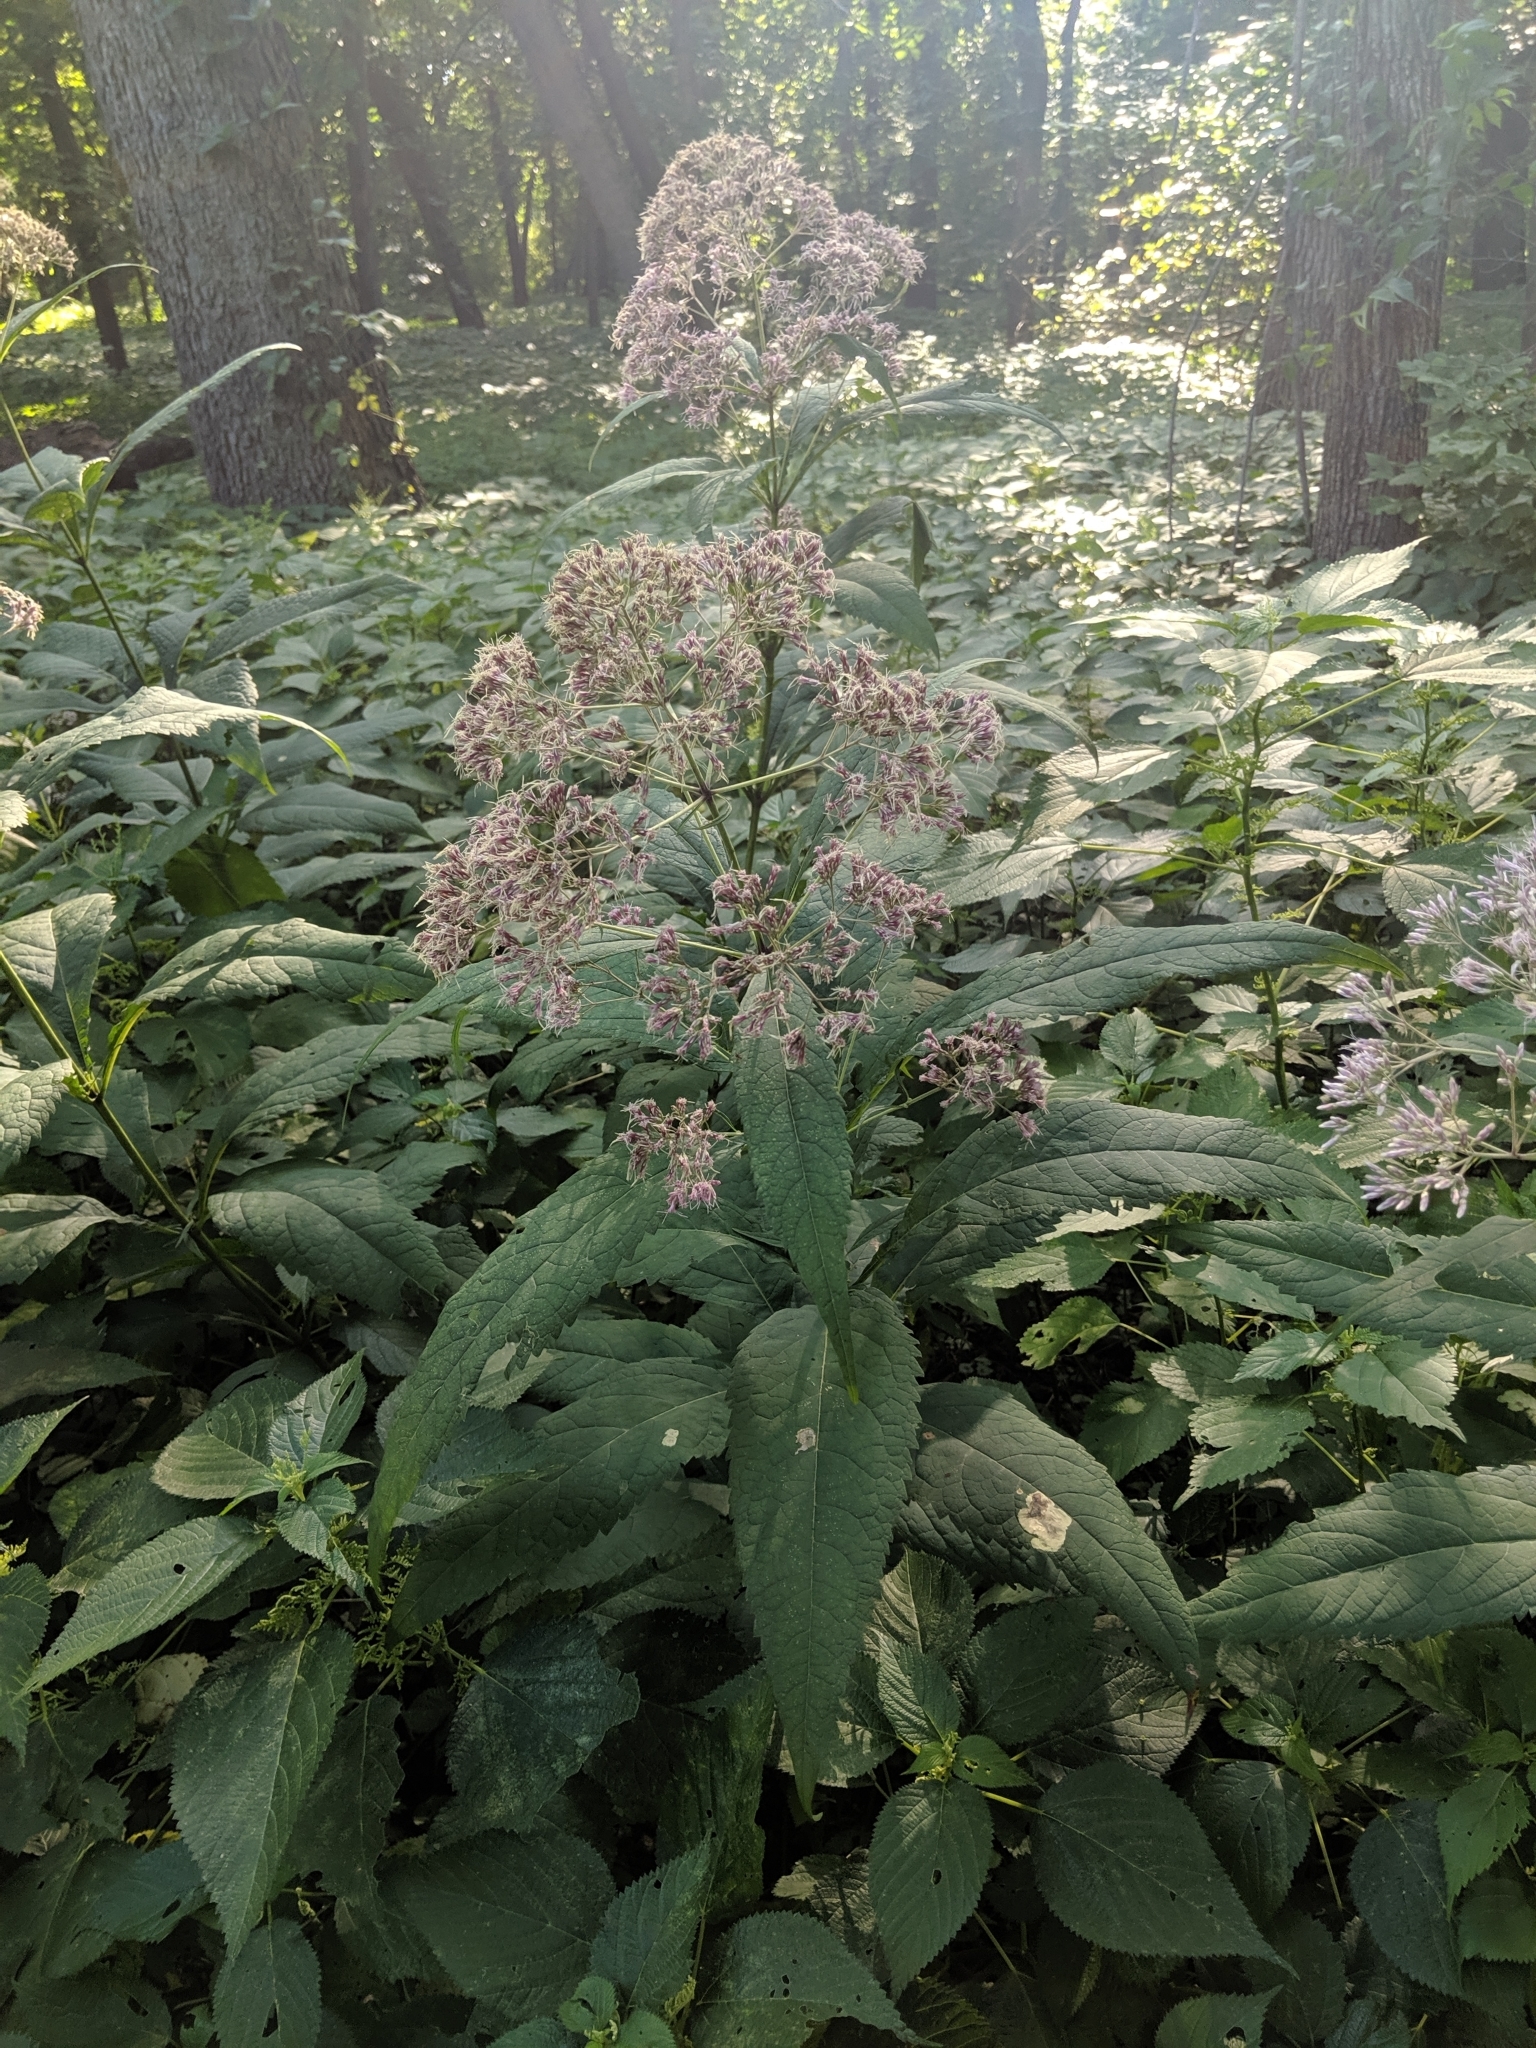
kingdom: Plantae
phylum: Tracheophyta
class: Magnoliopsida
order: Asterales
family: Asteraceae
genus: Eutrochium
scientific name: Eutrochium purpureum
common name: Gravelroot
